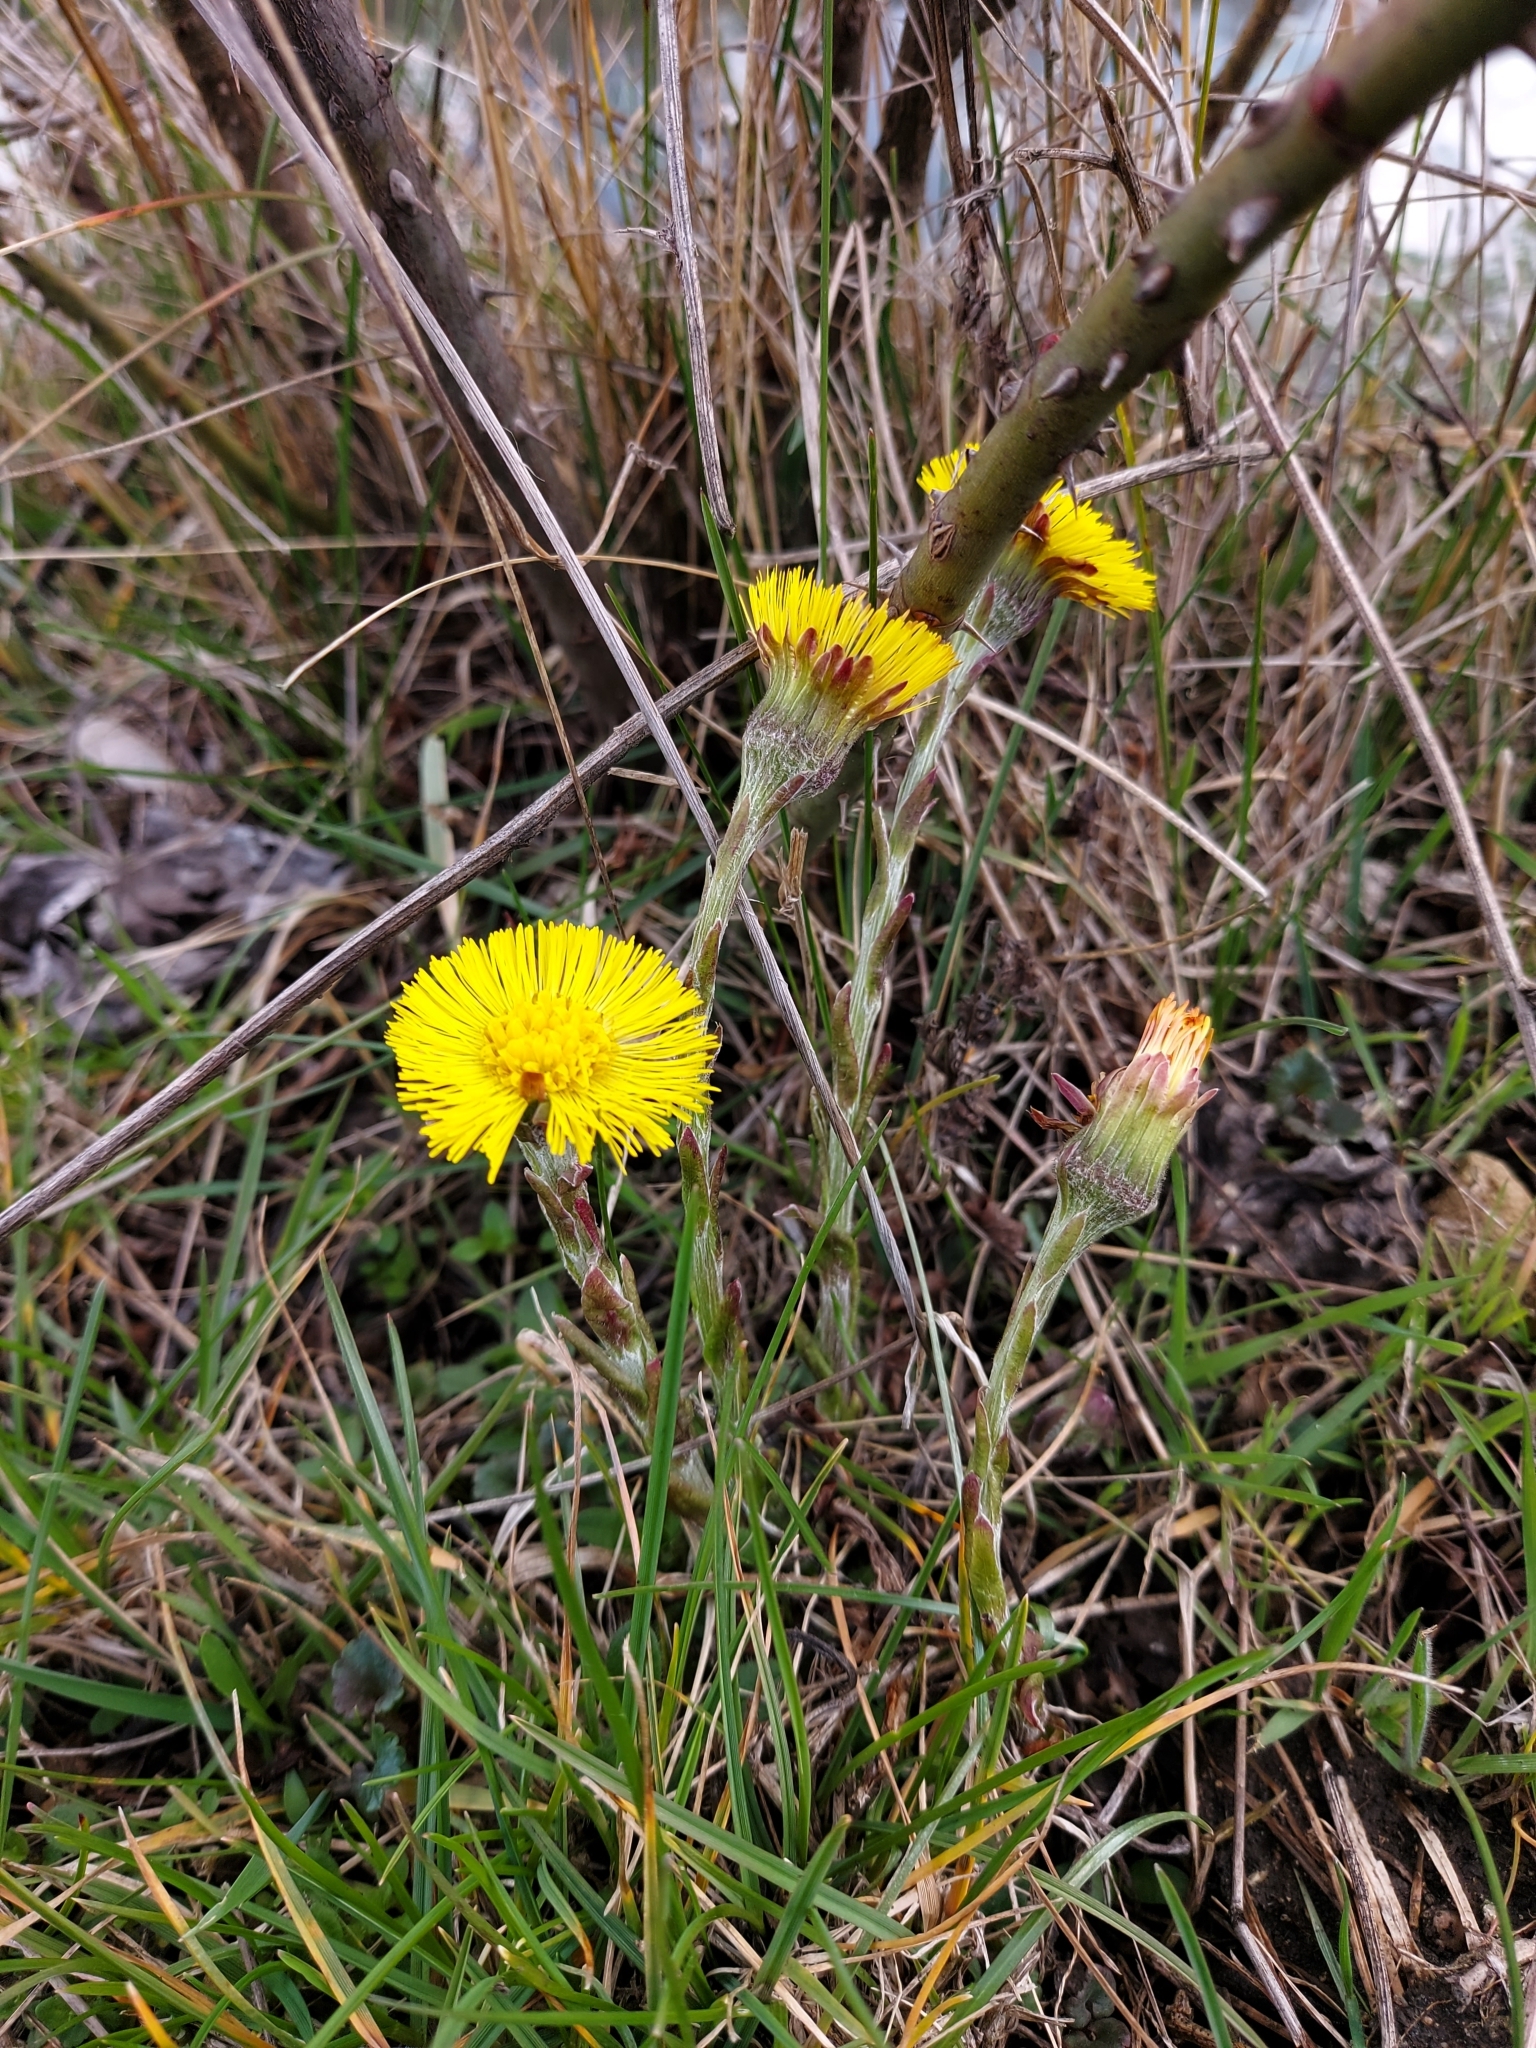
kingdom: Plantae
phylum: Tracheophyta
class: Magnoliopsida
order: Asterales
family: Asteraceae
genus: Tussilago
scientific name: Tussilago farfara
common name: Coltsfoot
